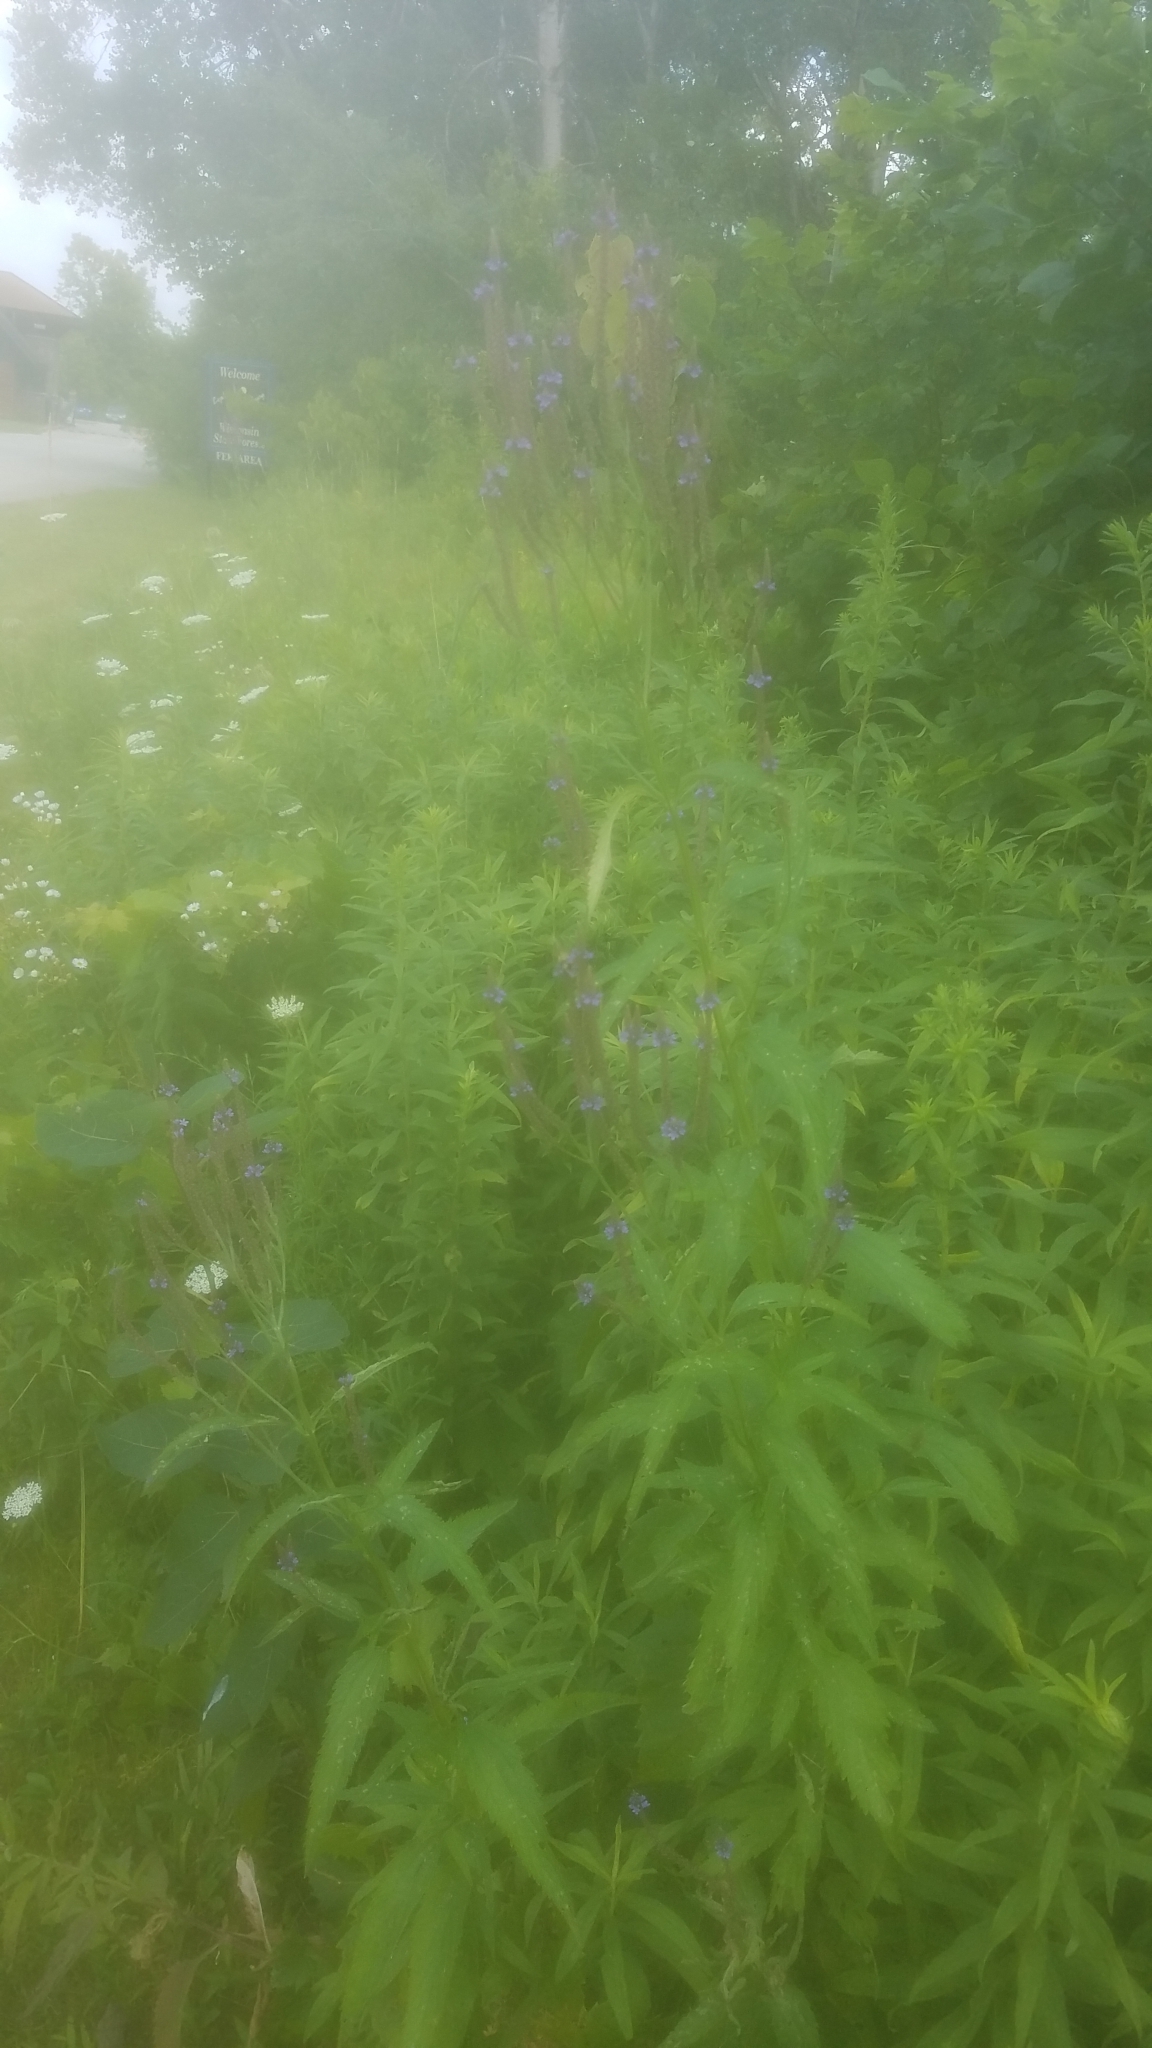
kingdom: Plantae
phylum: Tracheophyta
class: Magnoliopsida
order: Lamiales
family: Verbenaceae
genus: Verbena
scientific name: Verbena hastata
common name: American blue vervain
